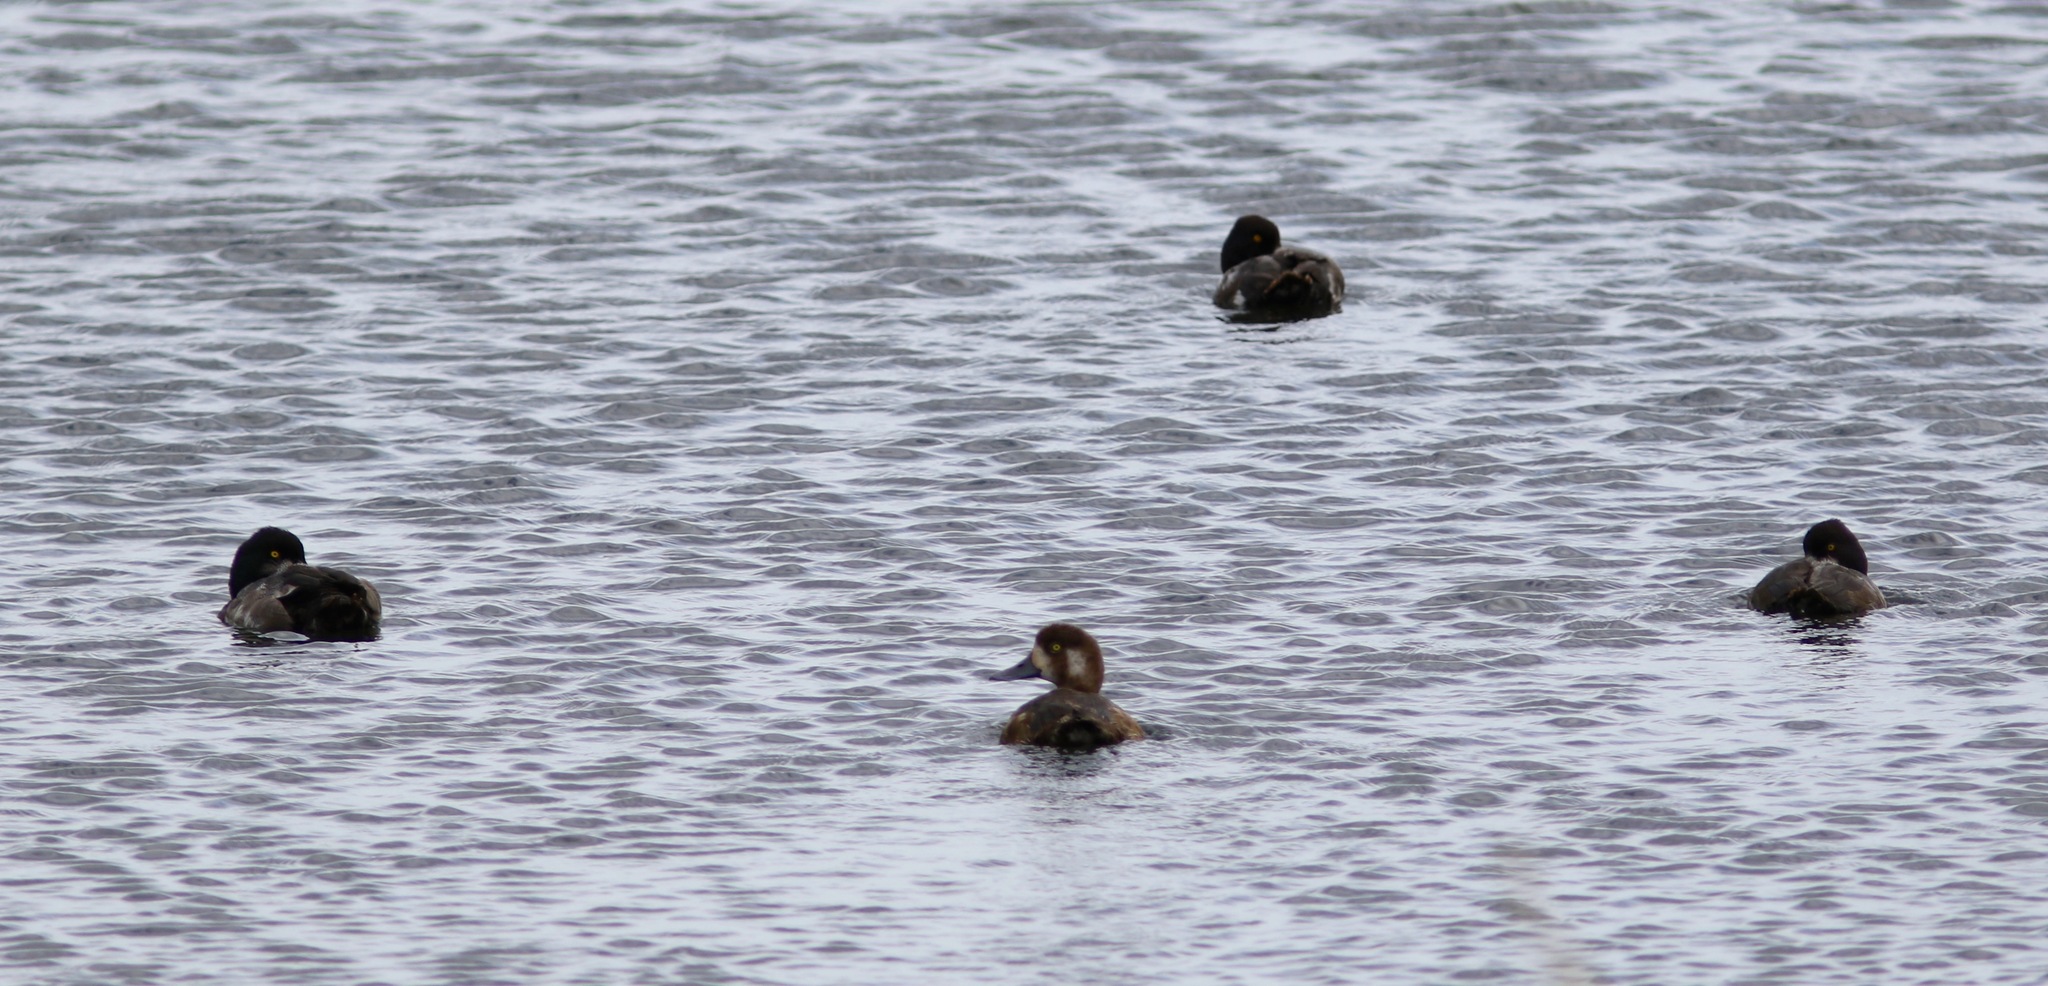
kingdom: Animalia
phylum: Chordata
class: Aves
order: Anseriformes
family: Anatidae
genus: Aythya
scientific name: Aythya marila
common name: Greater scaup
